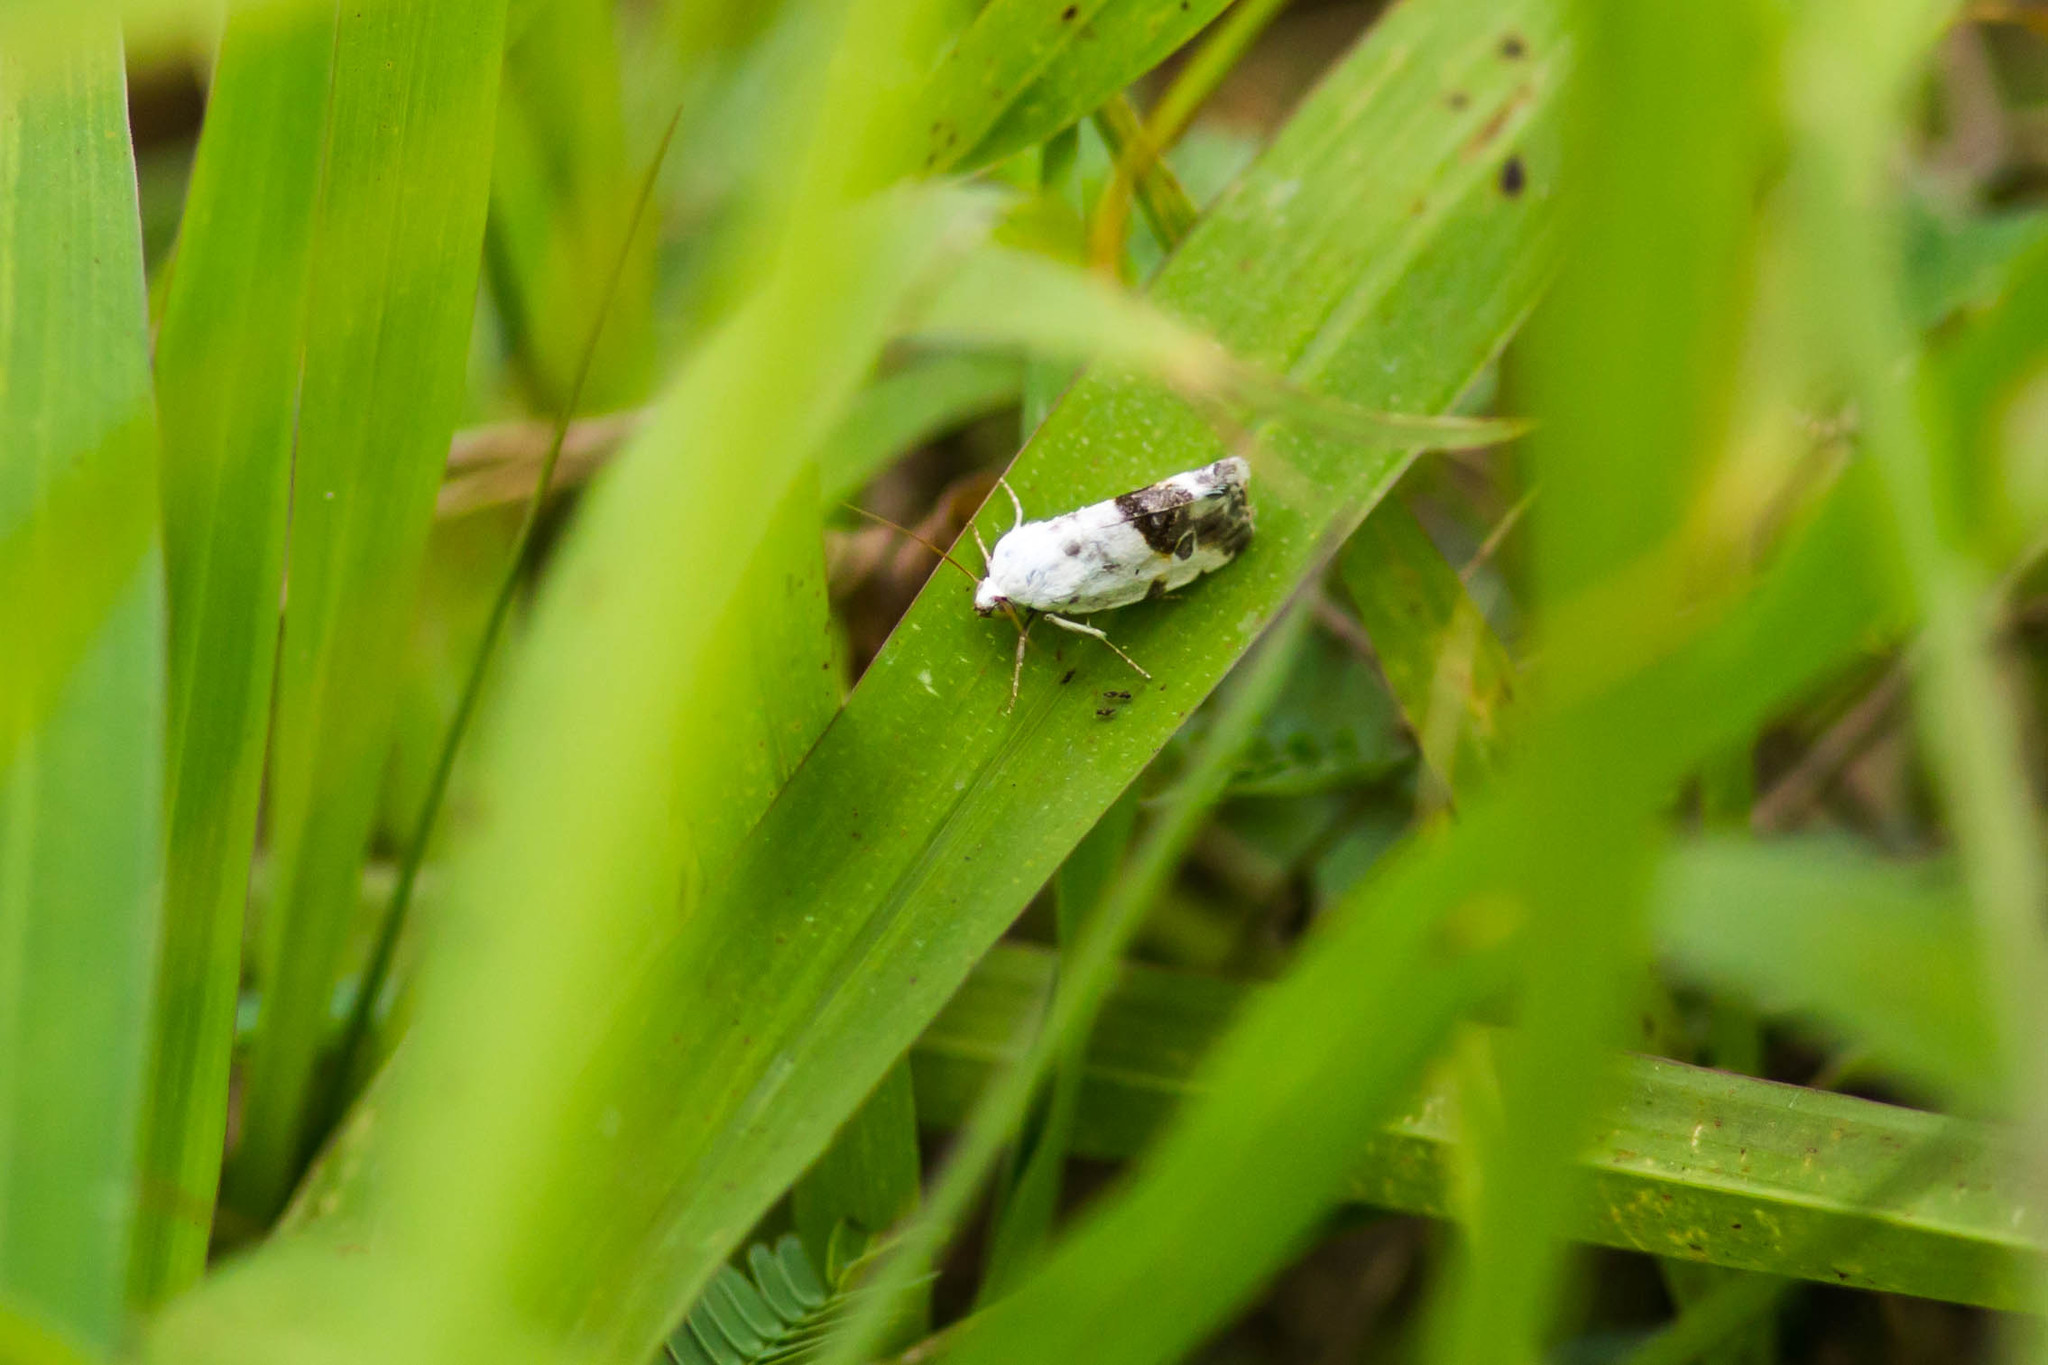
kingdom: Animalia
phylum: Arthropoda
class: Insecta
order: Lepidoptera
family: Noctuidae
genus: Acontia
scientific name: Acontia candefacta
